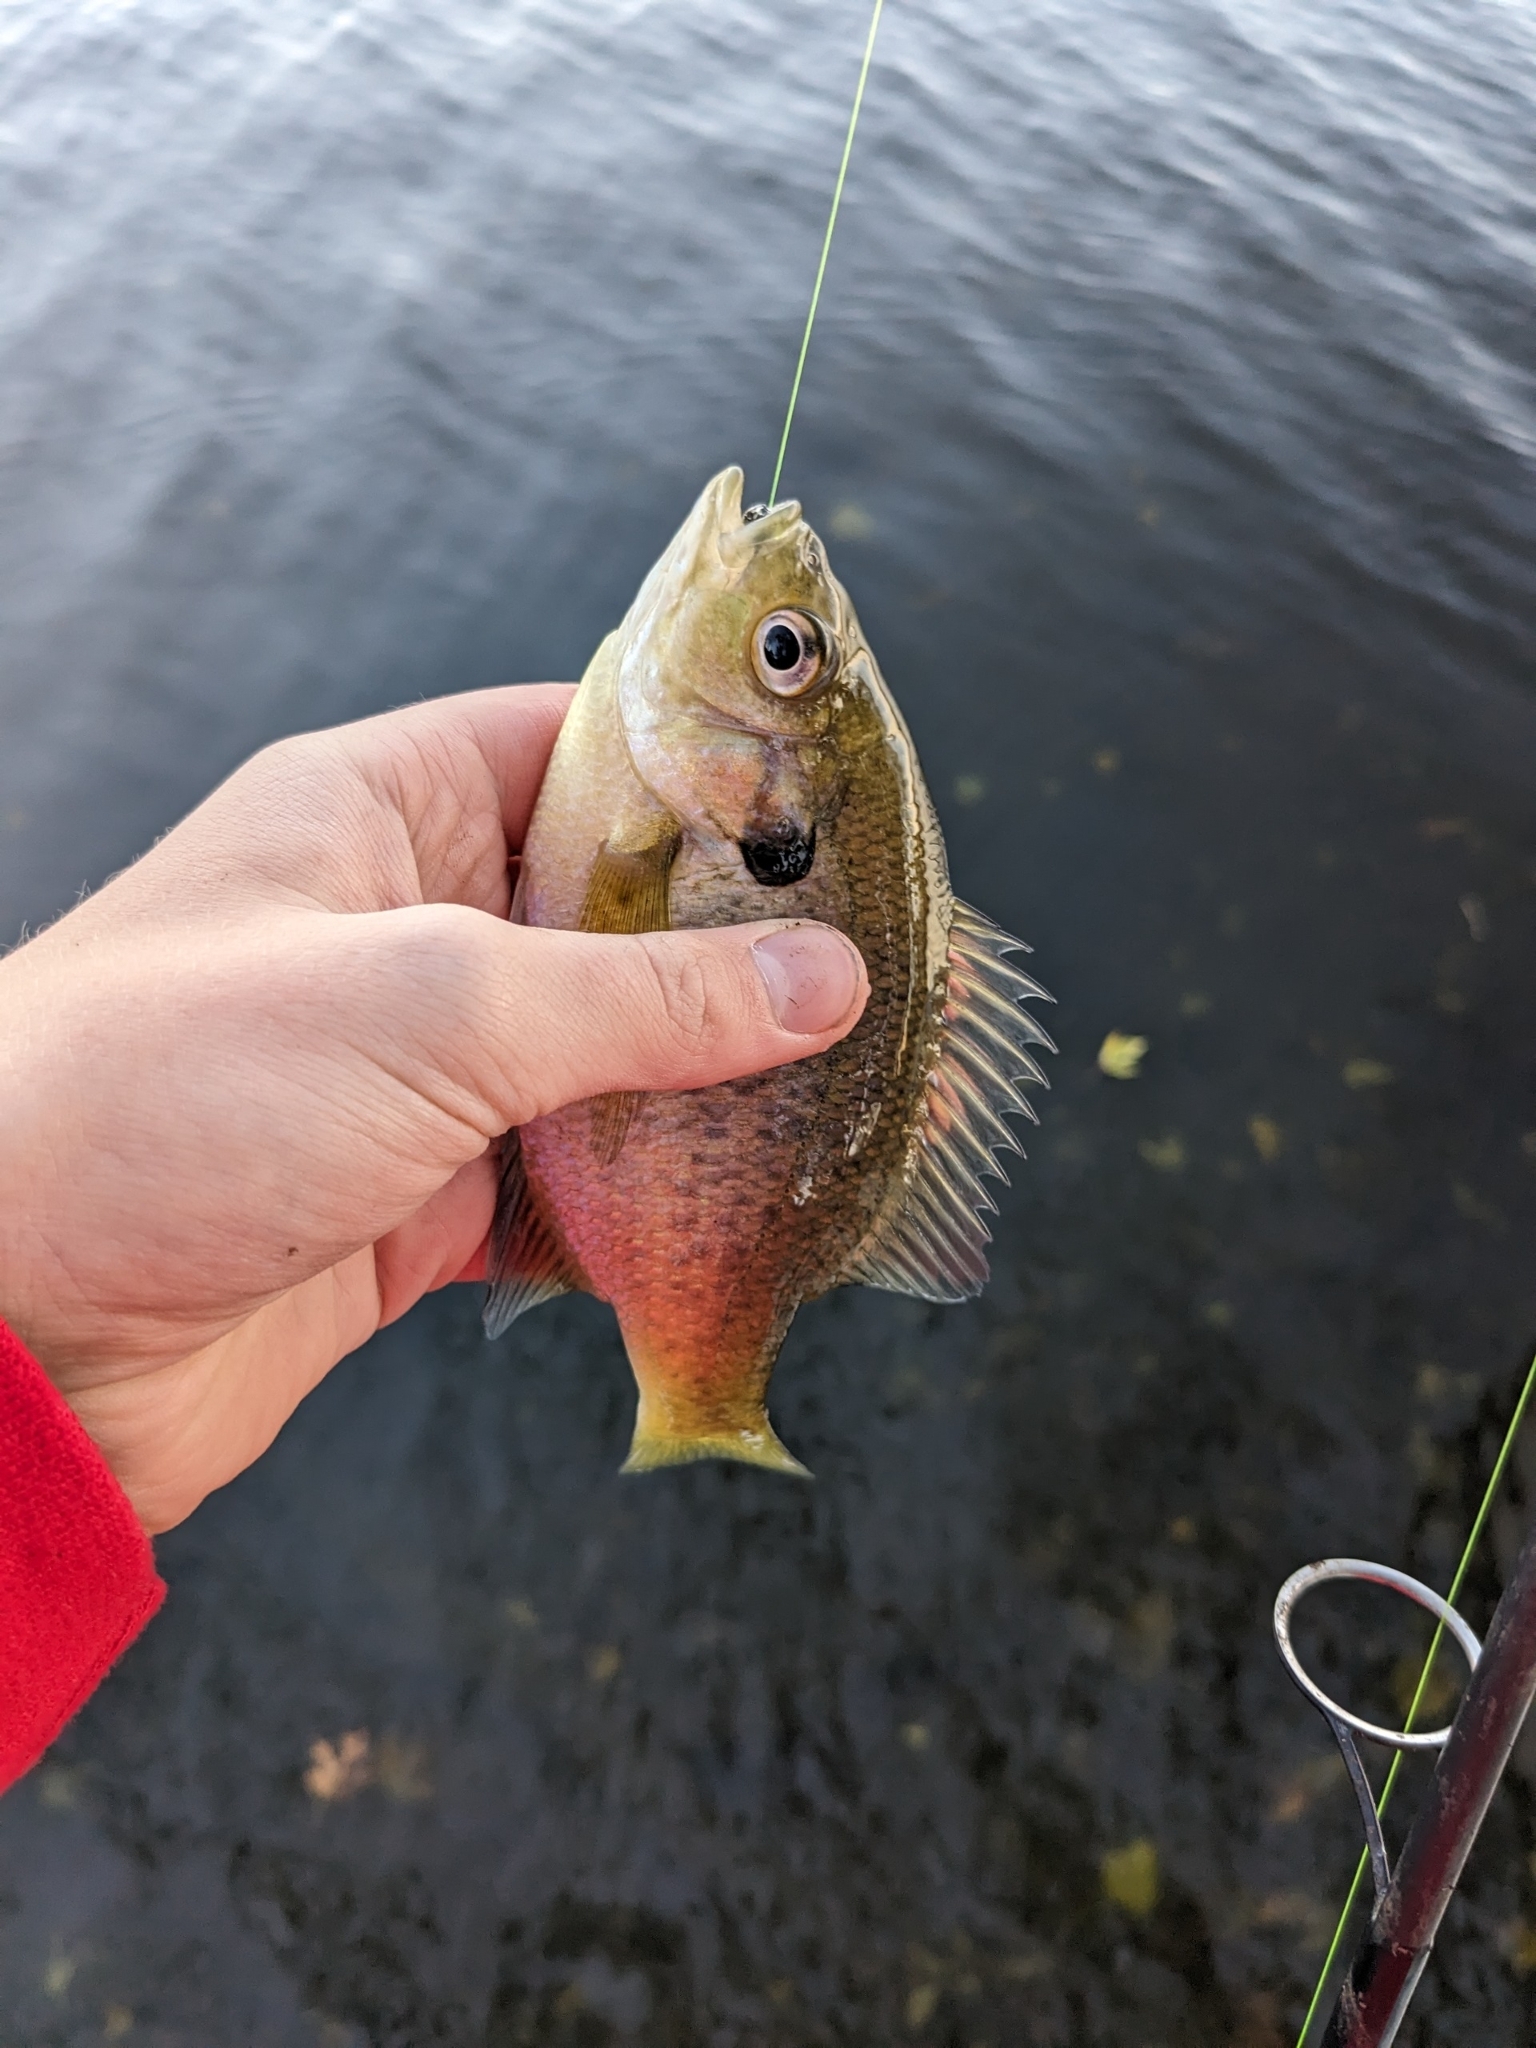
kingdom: Animalia
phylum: Chordata
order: Perciformes
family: Centrarchidae
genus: Lepomis
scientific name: Lepomis macrochirus
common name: Bluegill
